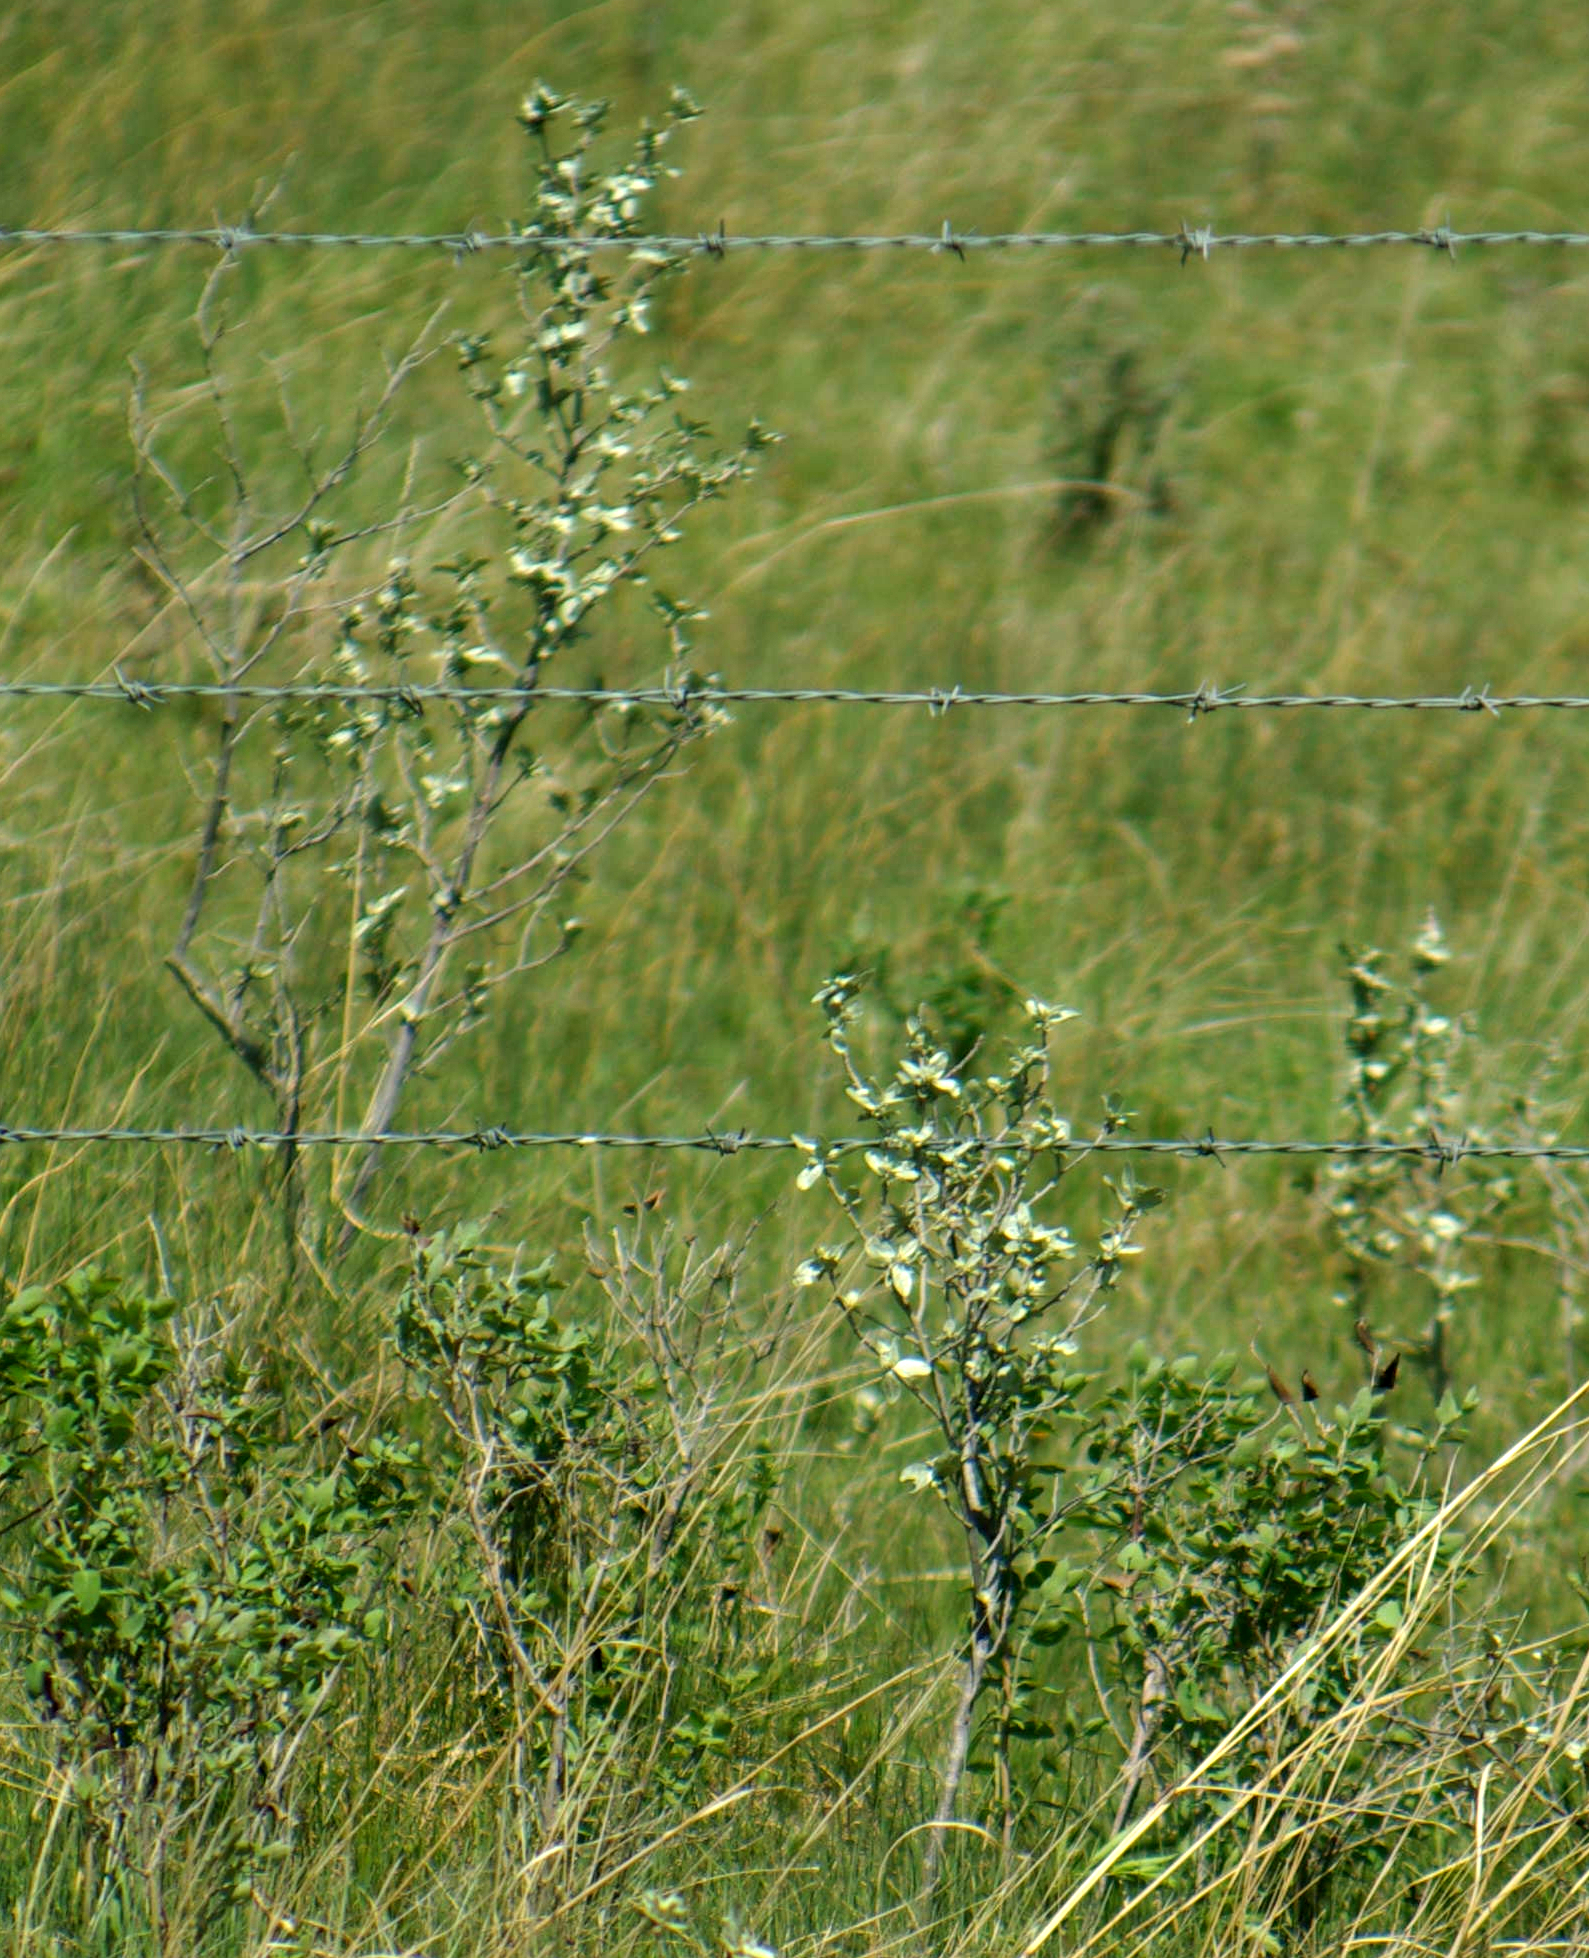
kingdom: Plantae
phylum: Tracheophyta
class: Magnoliopsida
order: Rosales
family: Elaeagnaceae
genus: Elaeagnus
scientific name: Elaeagnus commutata
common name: Silverberry
